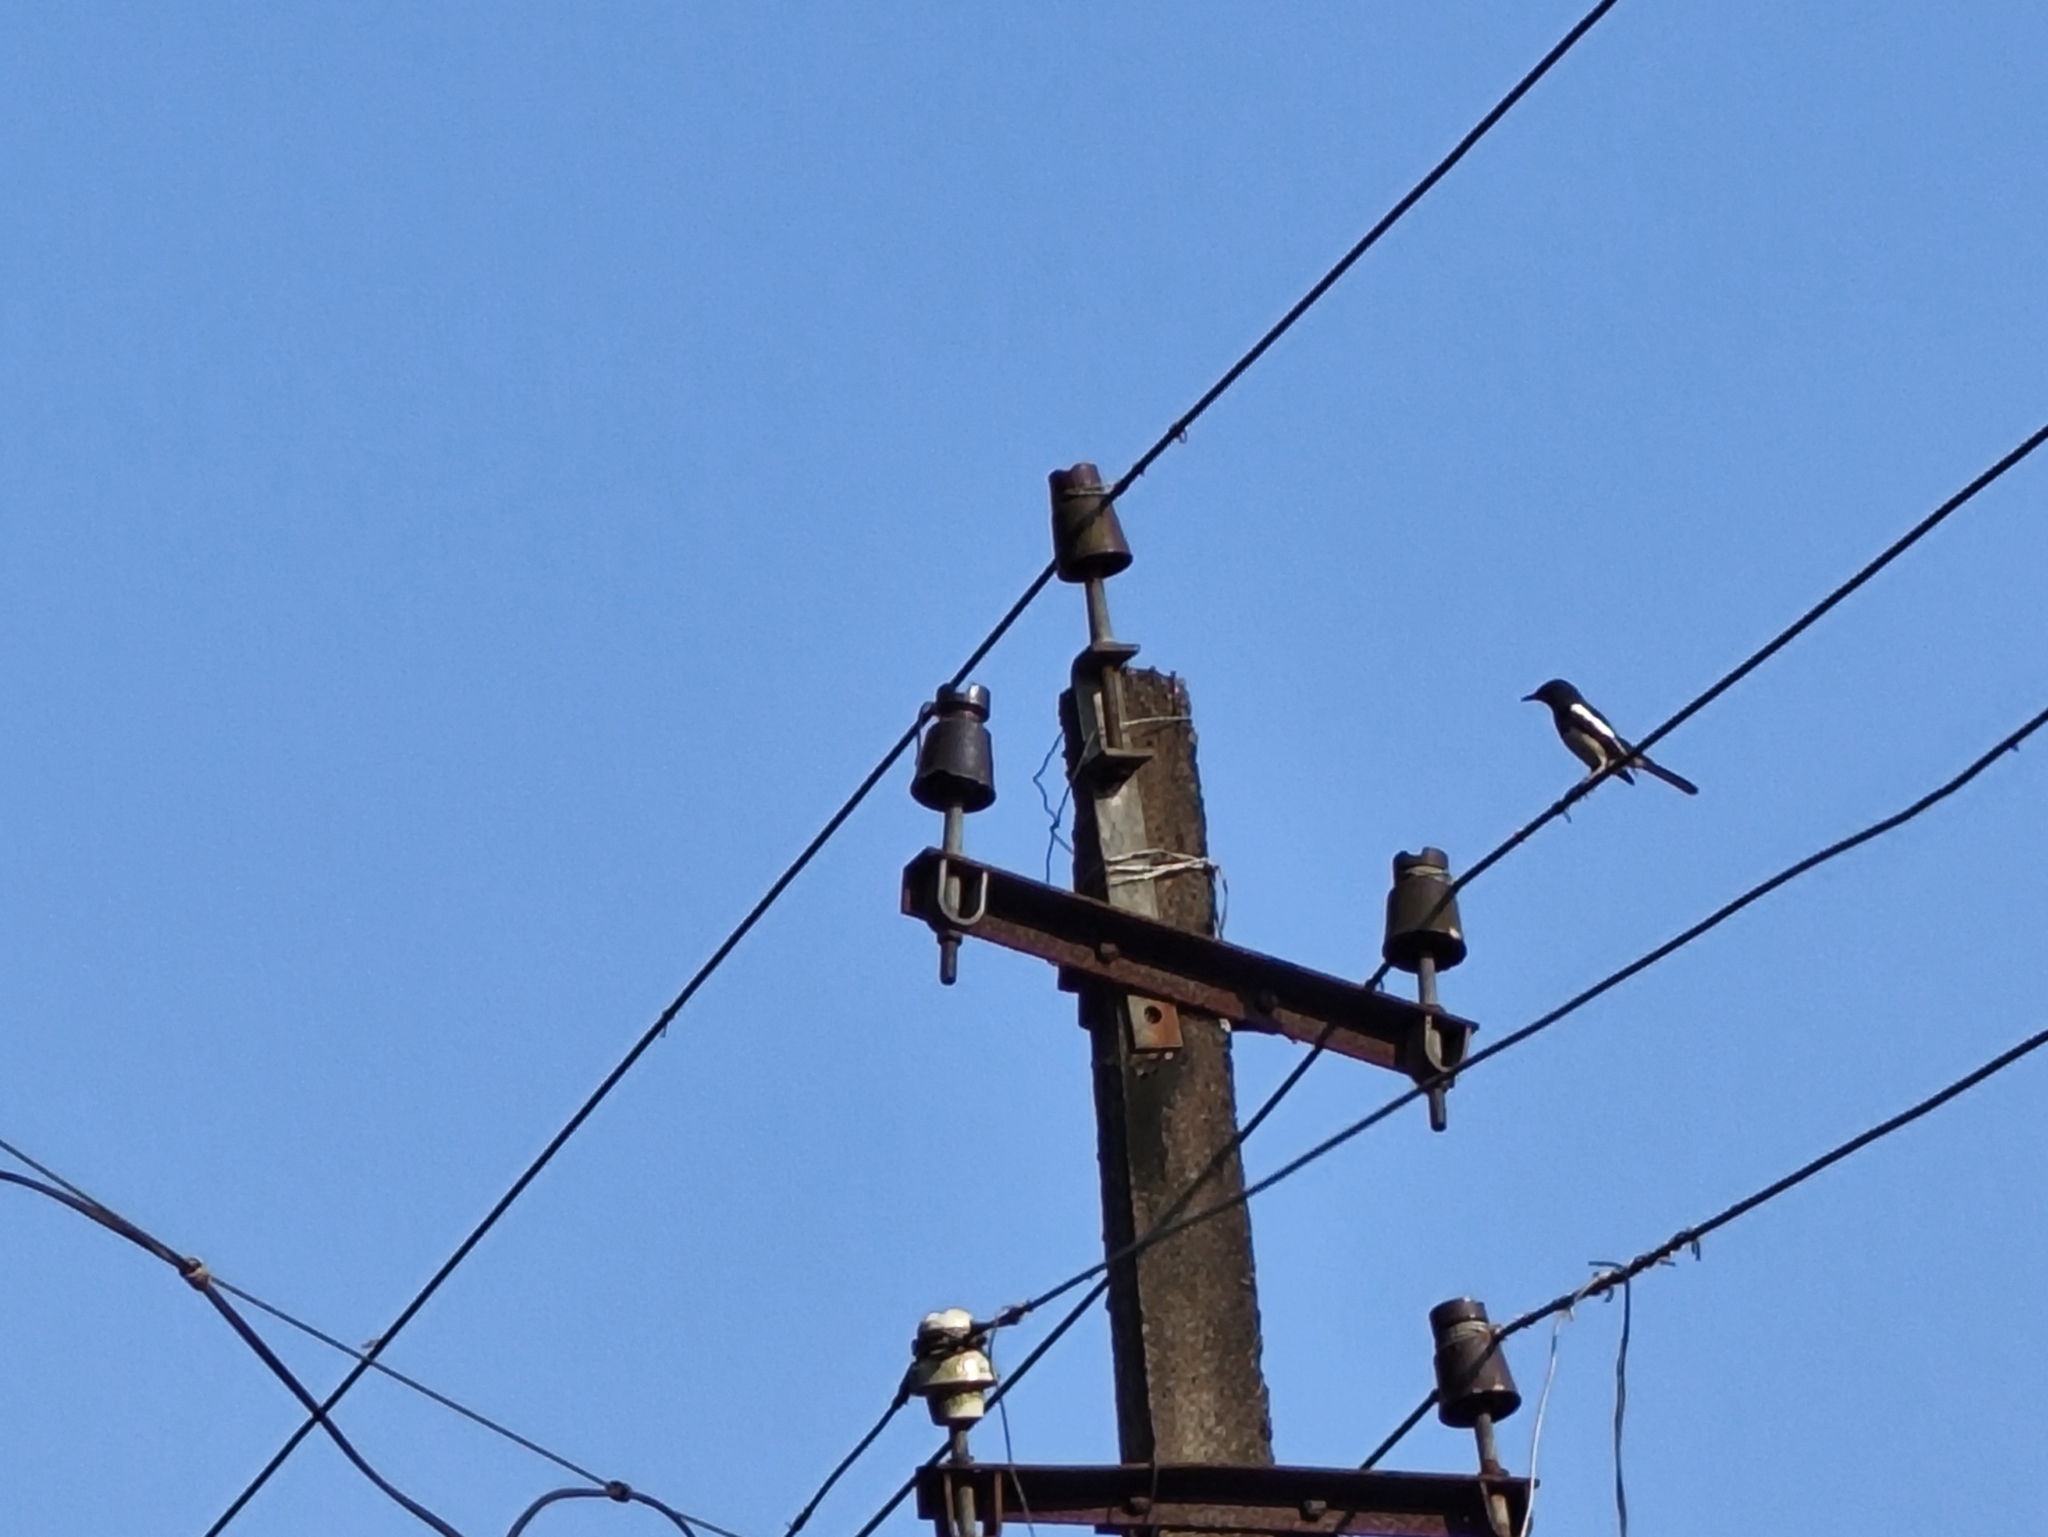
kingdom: Animalia
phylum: Chordata
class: Aves
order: Passeriformes
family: Muscicapidae
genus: Copsychus
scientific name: Copsychus saularis
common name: Oriental magpie-robin
